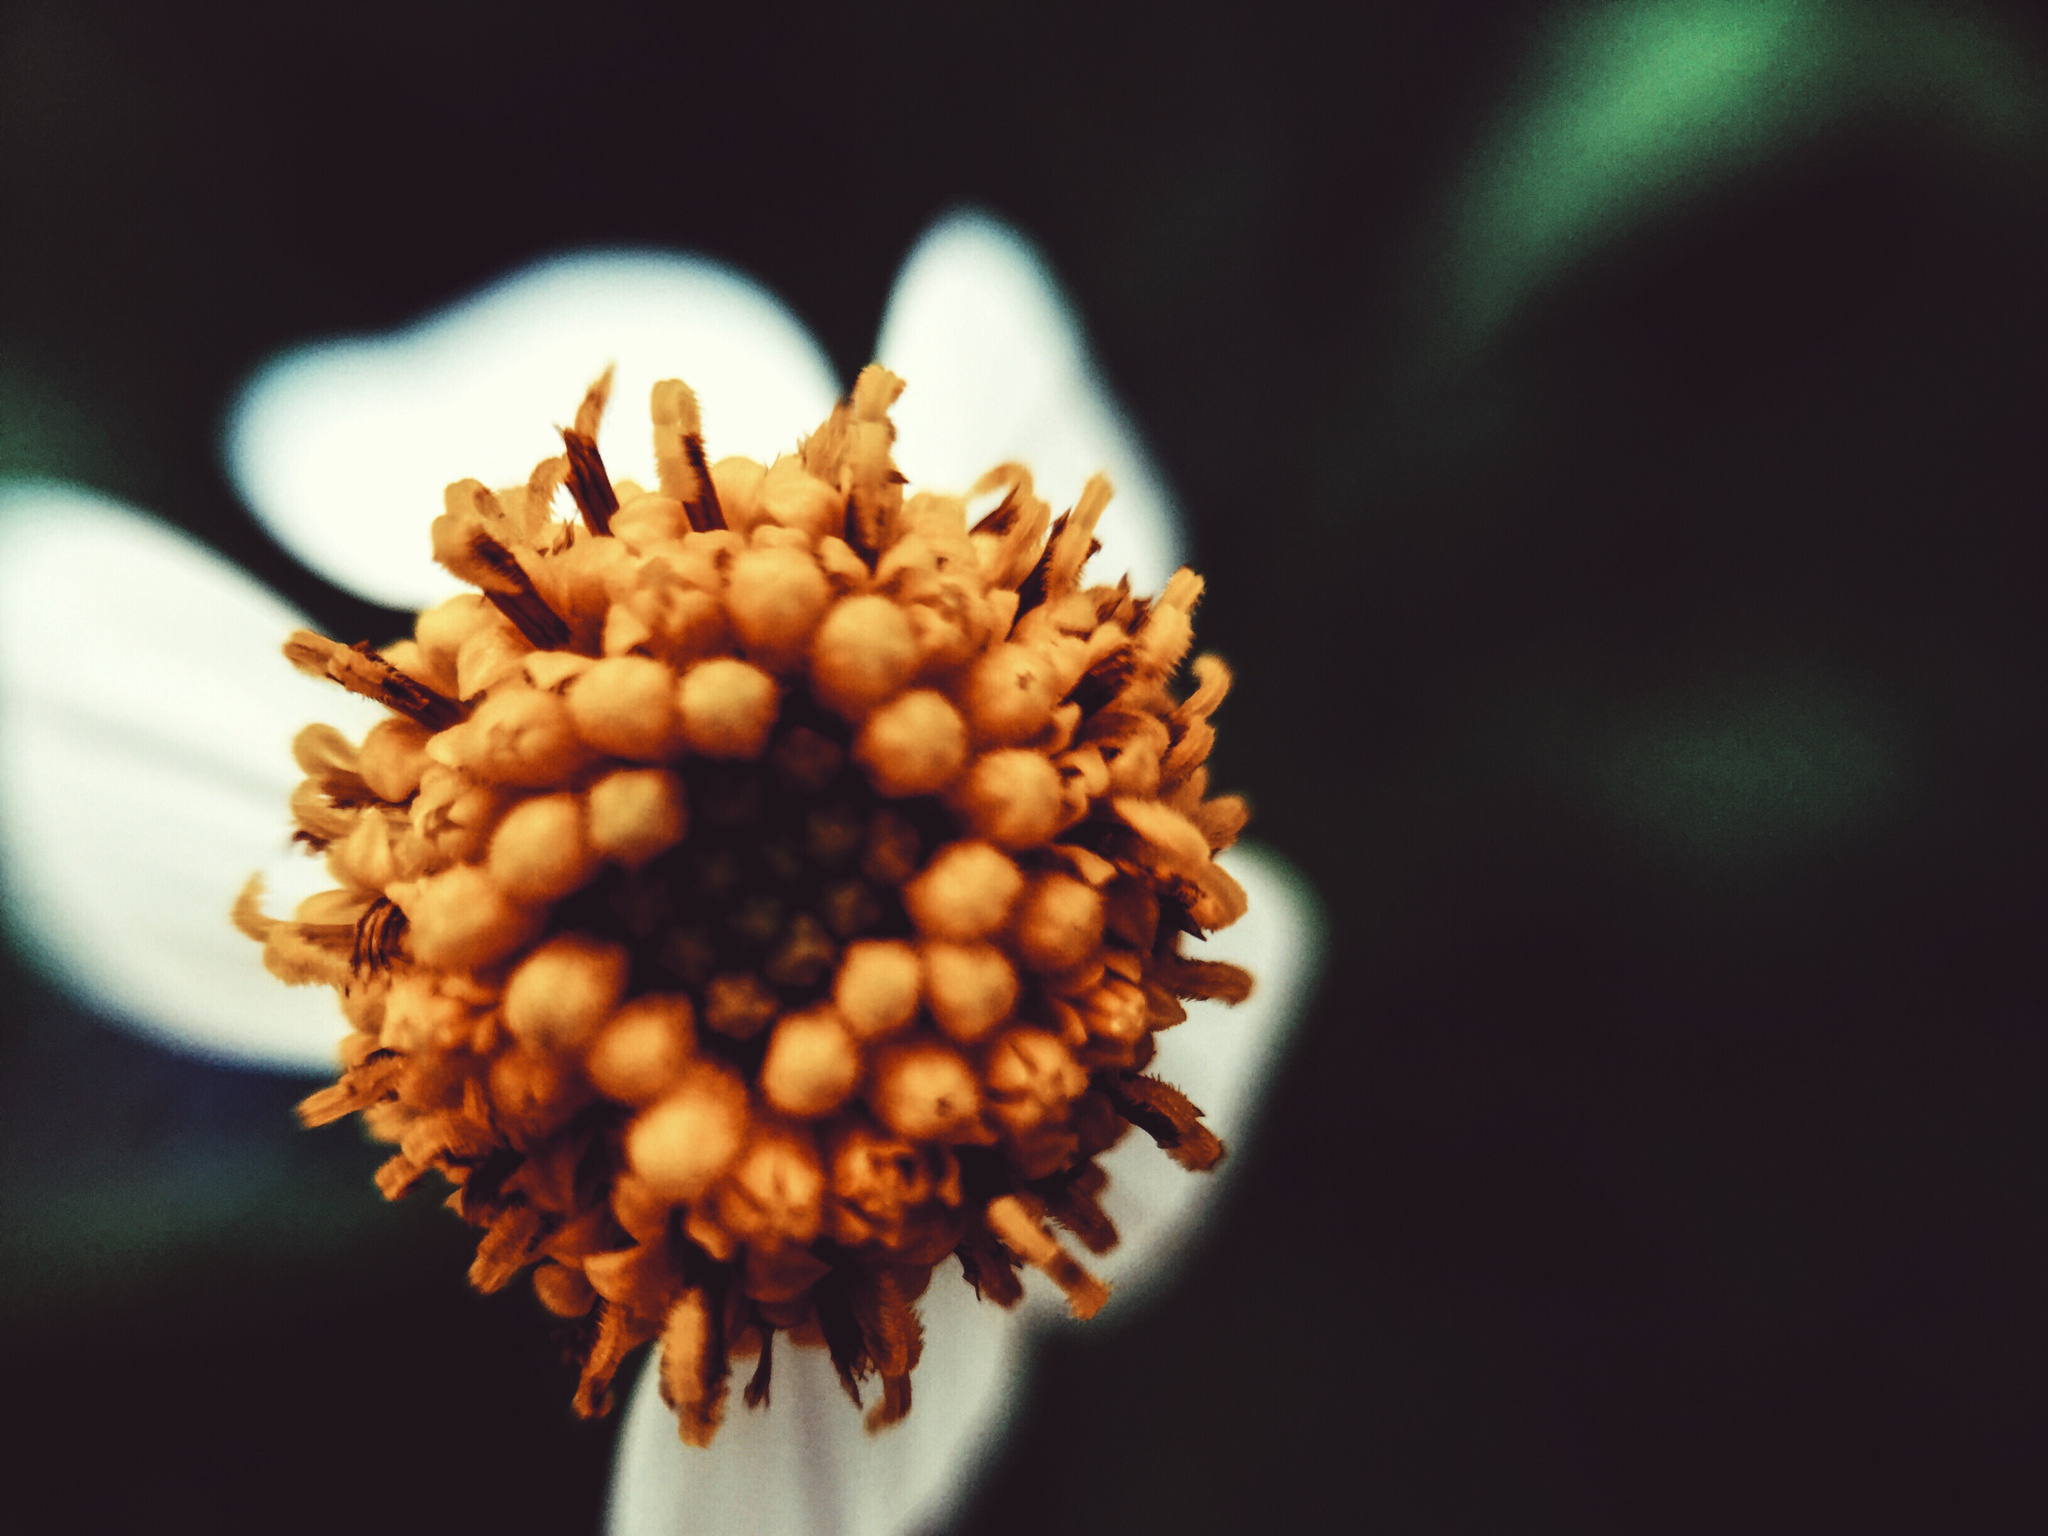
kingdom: Plantae
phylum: Tracheophyta
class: Magnoliopsida
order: Asterales
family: Asteraceae
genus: Bidens
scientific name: Bidens odorata
